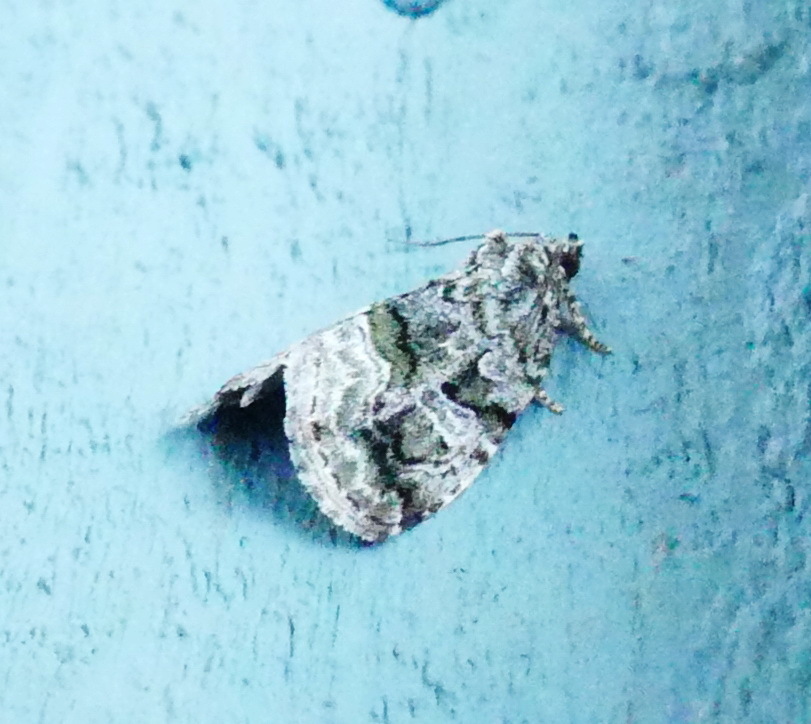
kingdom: Animalia
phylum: Arthropoda
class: Insecta
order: Lepidoptera
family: Noctuidae
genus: Protodeltote
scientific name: Protodeltote muscosula
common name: Large mossy glyph
